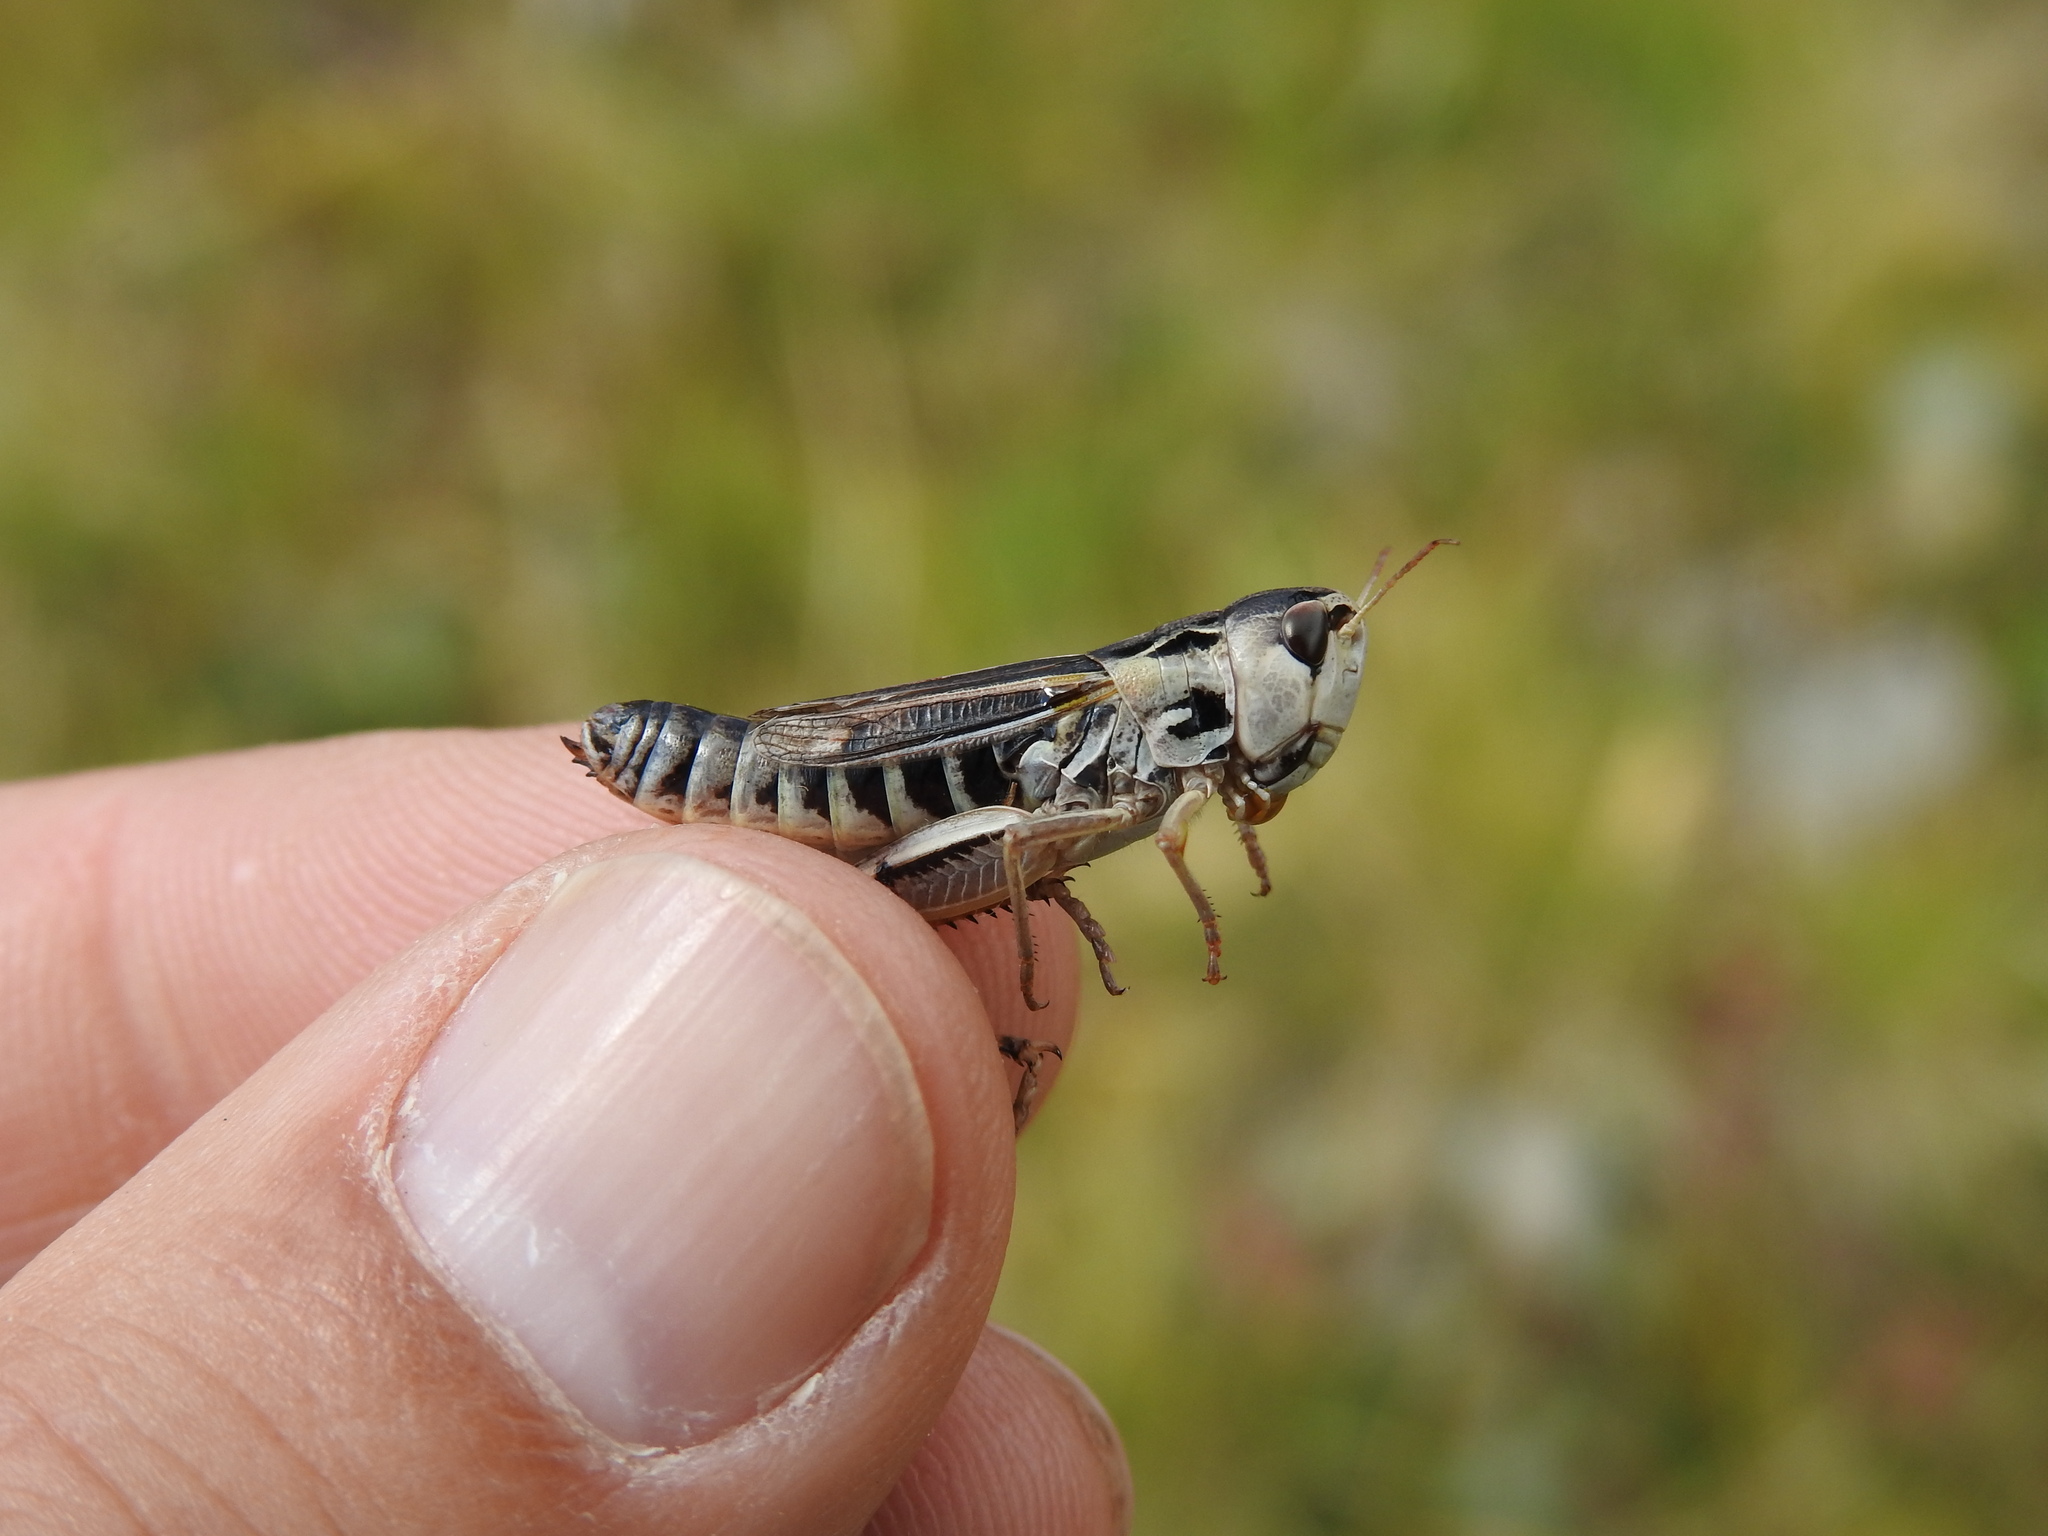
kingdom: Animalia
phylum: Arthropoda
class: Insecta
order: Orthoptera
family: Acrididae
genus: Stenobothrus
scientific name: Stenobothrus nigromaculatus
